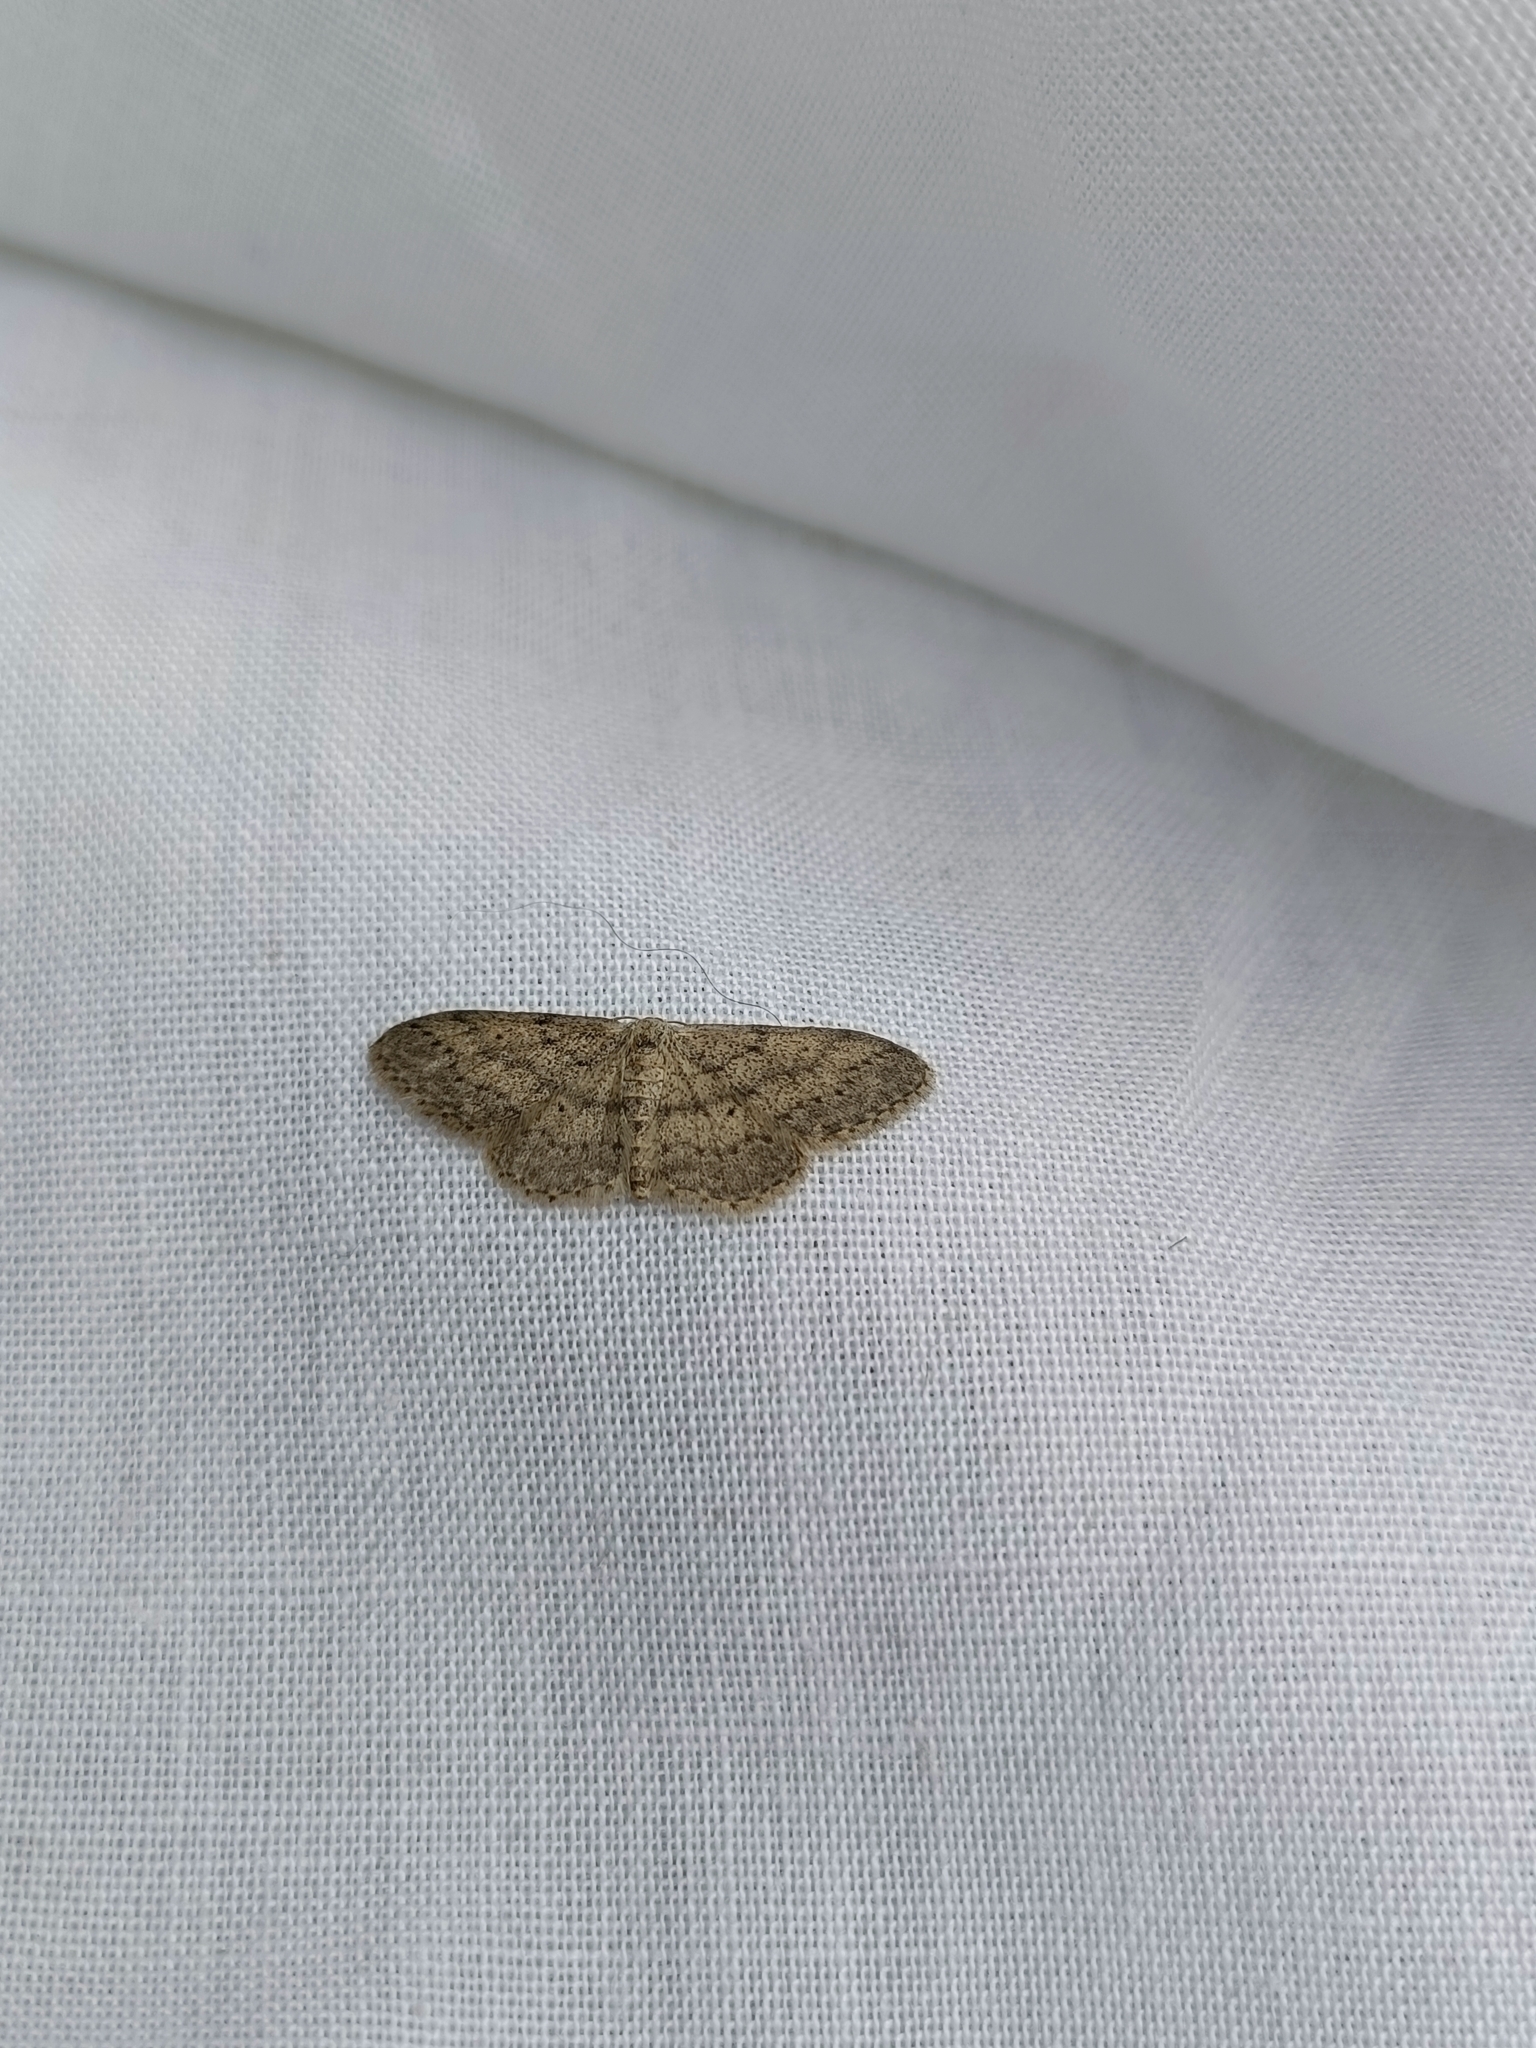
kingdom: Animalia
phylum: Arthropoda
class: Insecta
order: Lepidoptera
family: Geometridae
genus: Idaea
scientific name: Idaea seriata
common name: Small dusty wave
